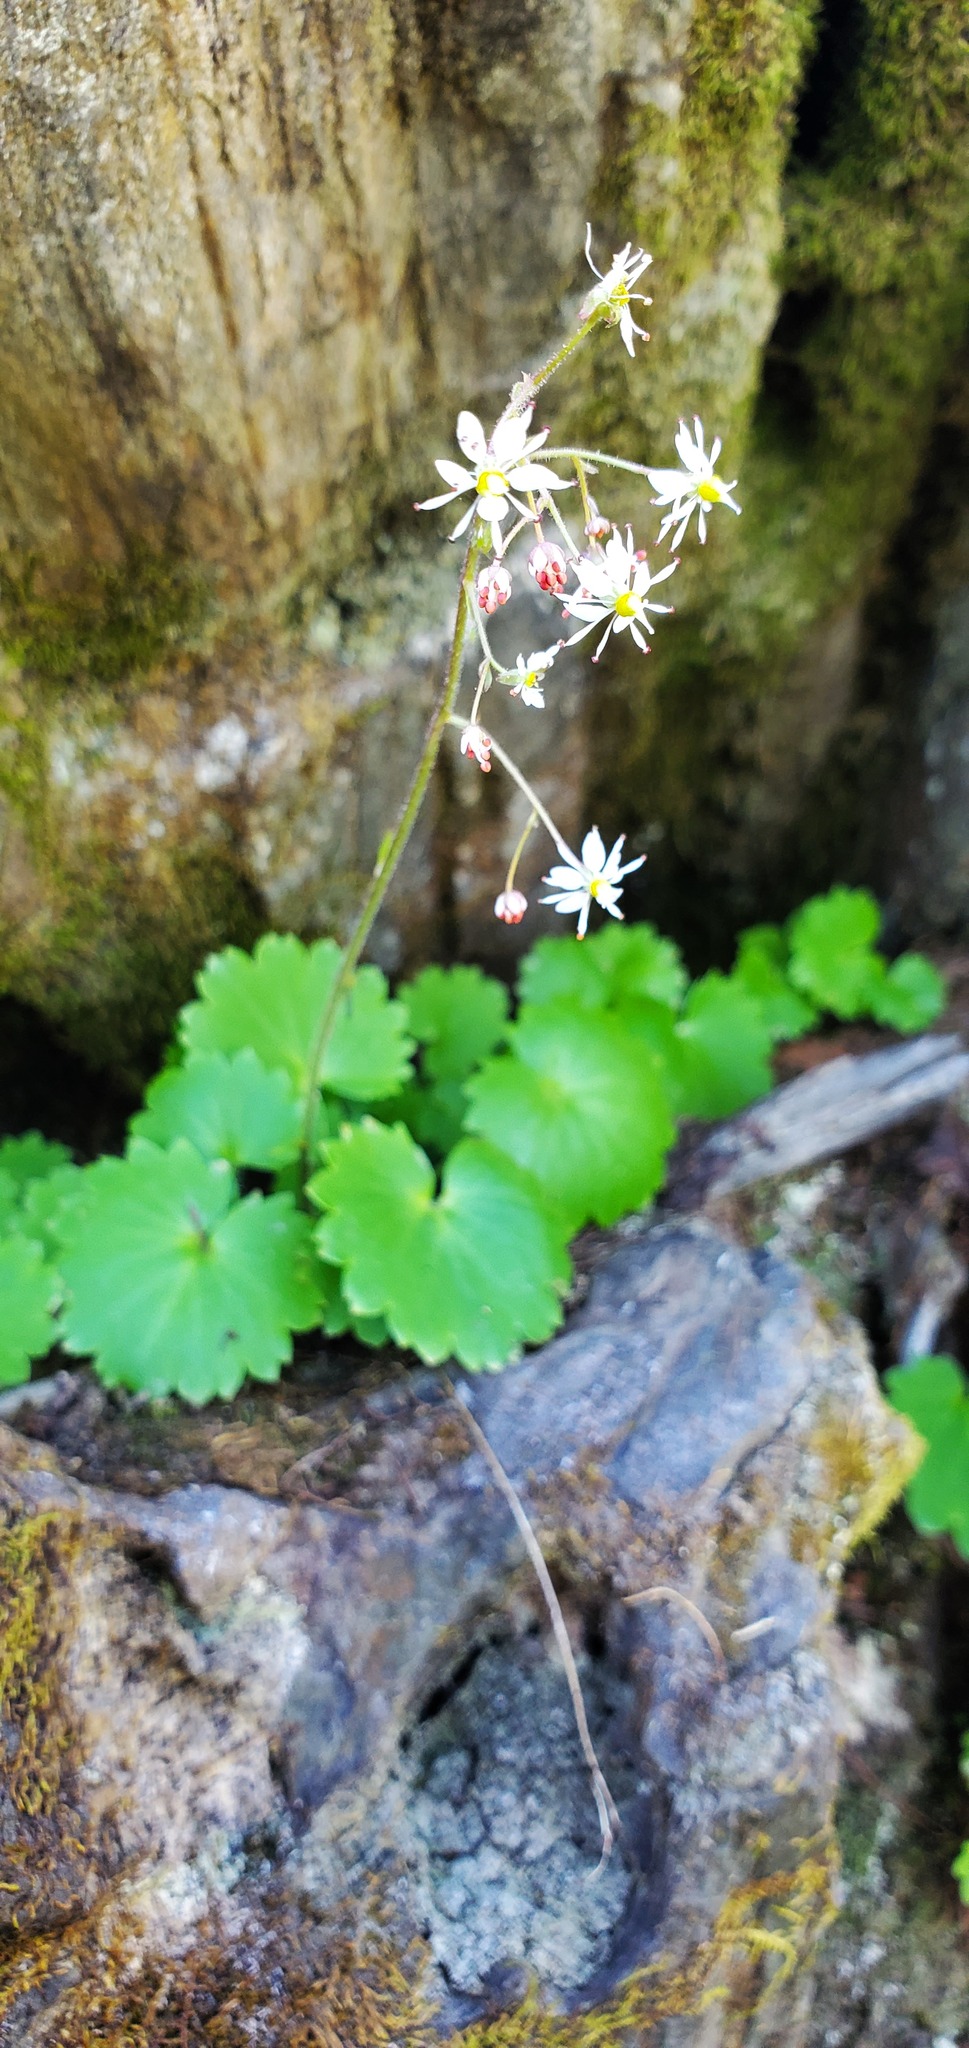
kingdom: Plantae
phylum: Tracheophyta
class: Magnoliopsida
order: Saxifragales
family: Saxifragaceae
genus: Micranthes
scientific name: Micranthes mertensiana
